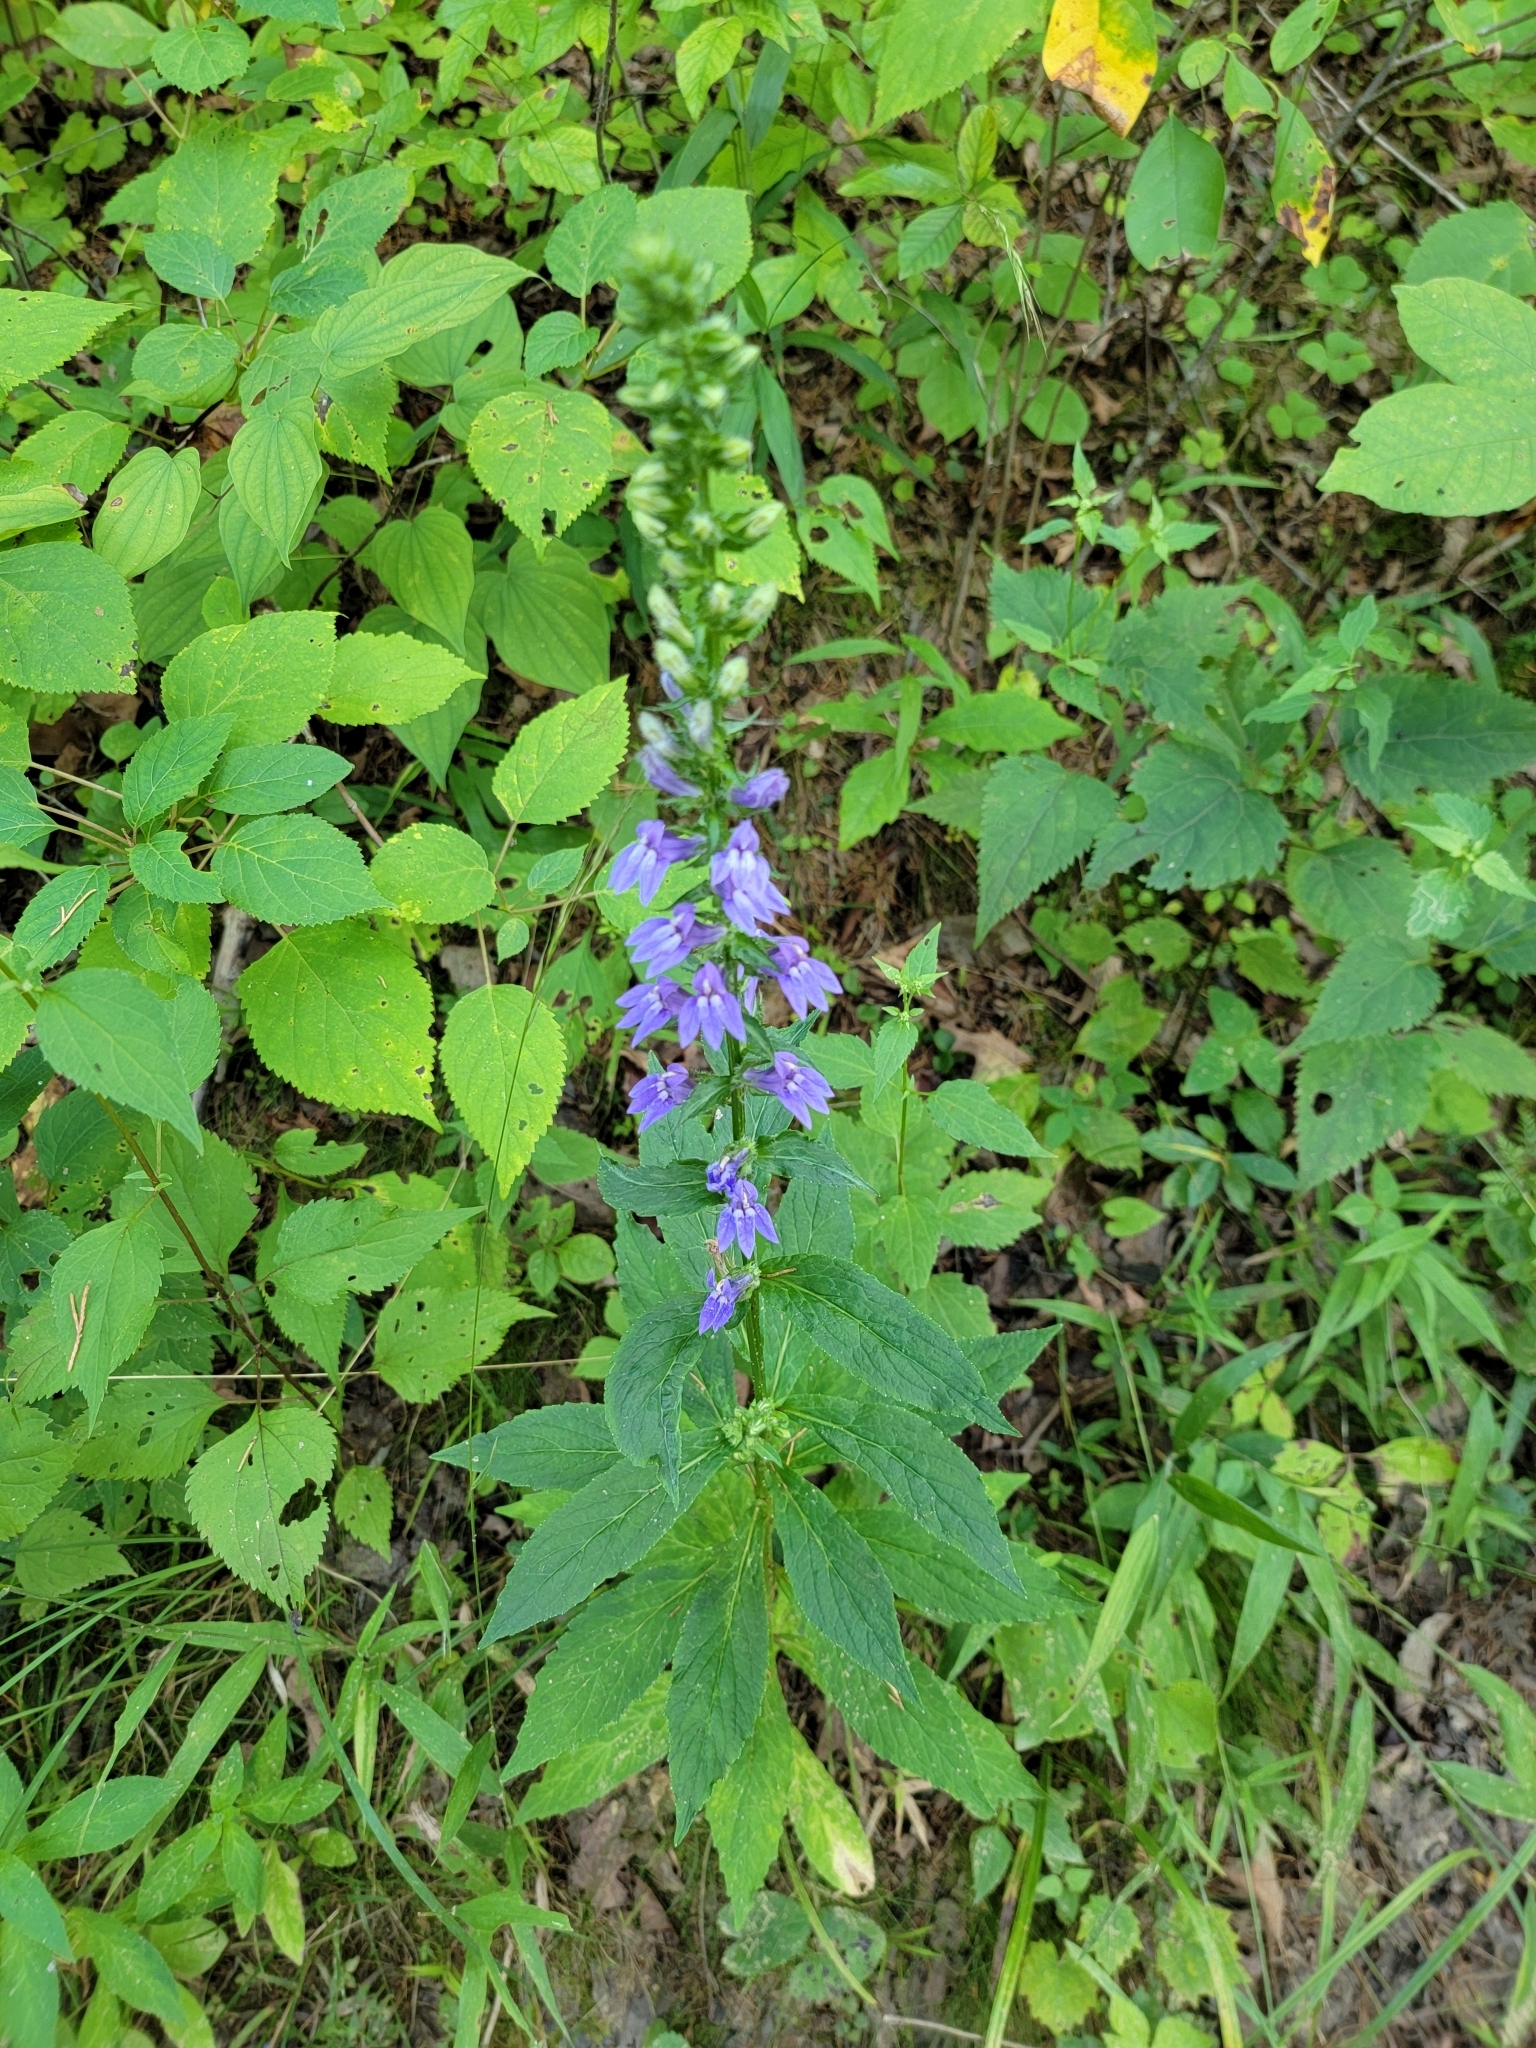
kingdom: Plantae
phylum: Tracheophyta
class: Magnoliopsida
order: Asterales
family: Campanulaceae
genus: Lobelia
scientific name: Lobelia siphilitica
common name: Great lobelia
